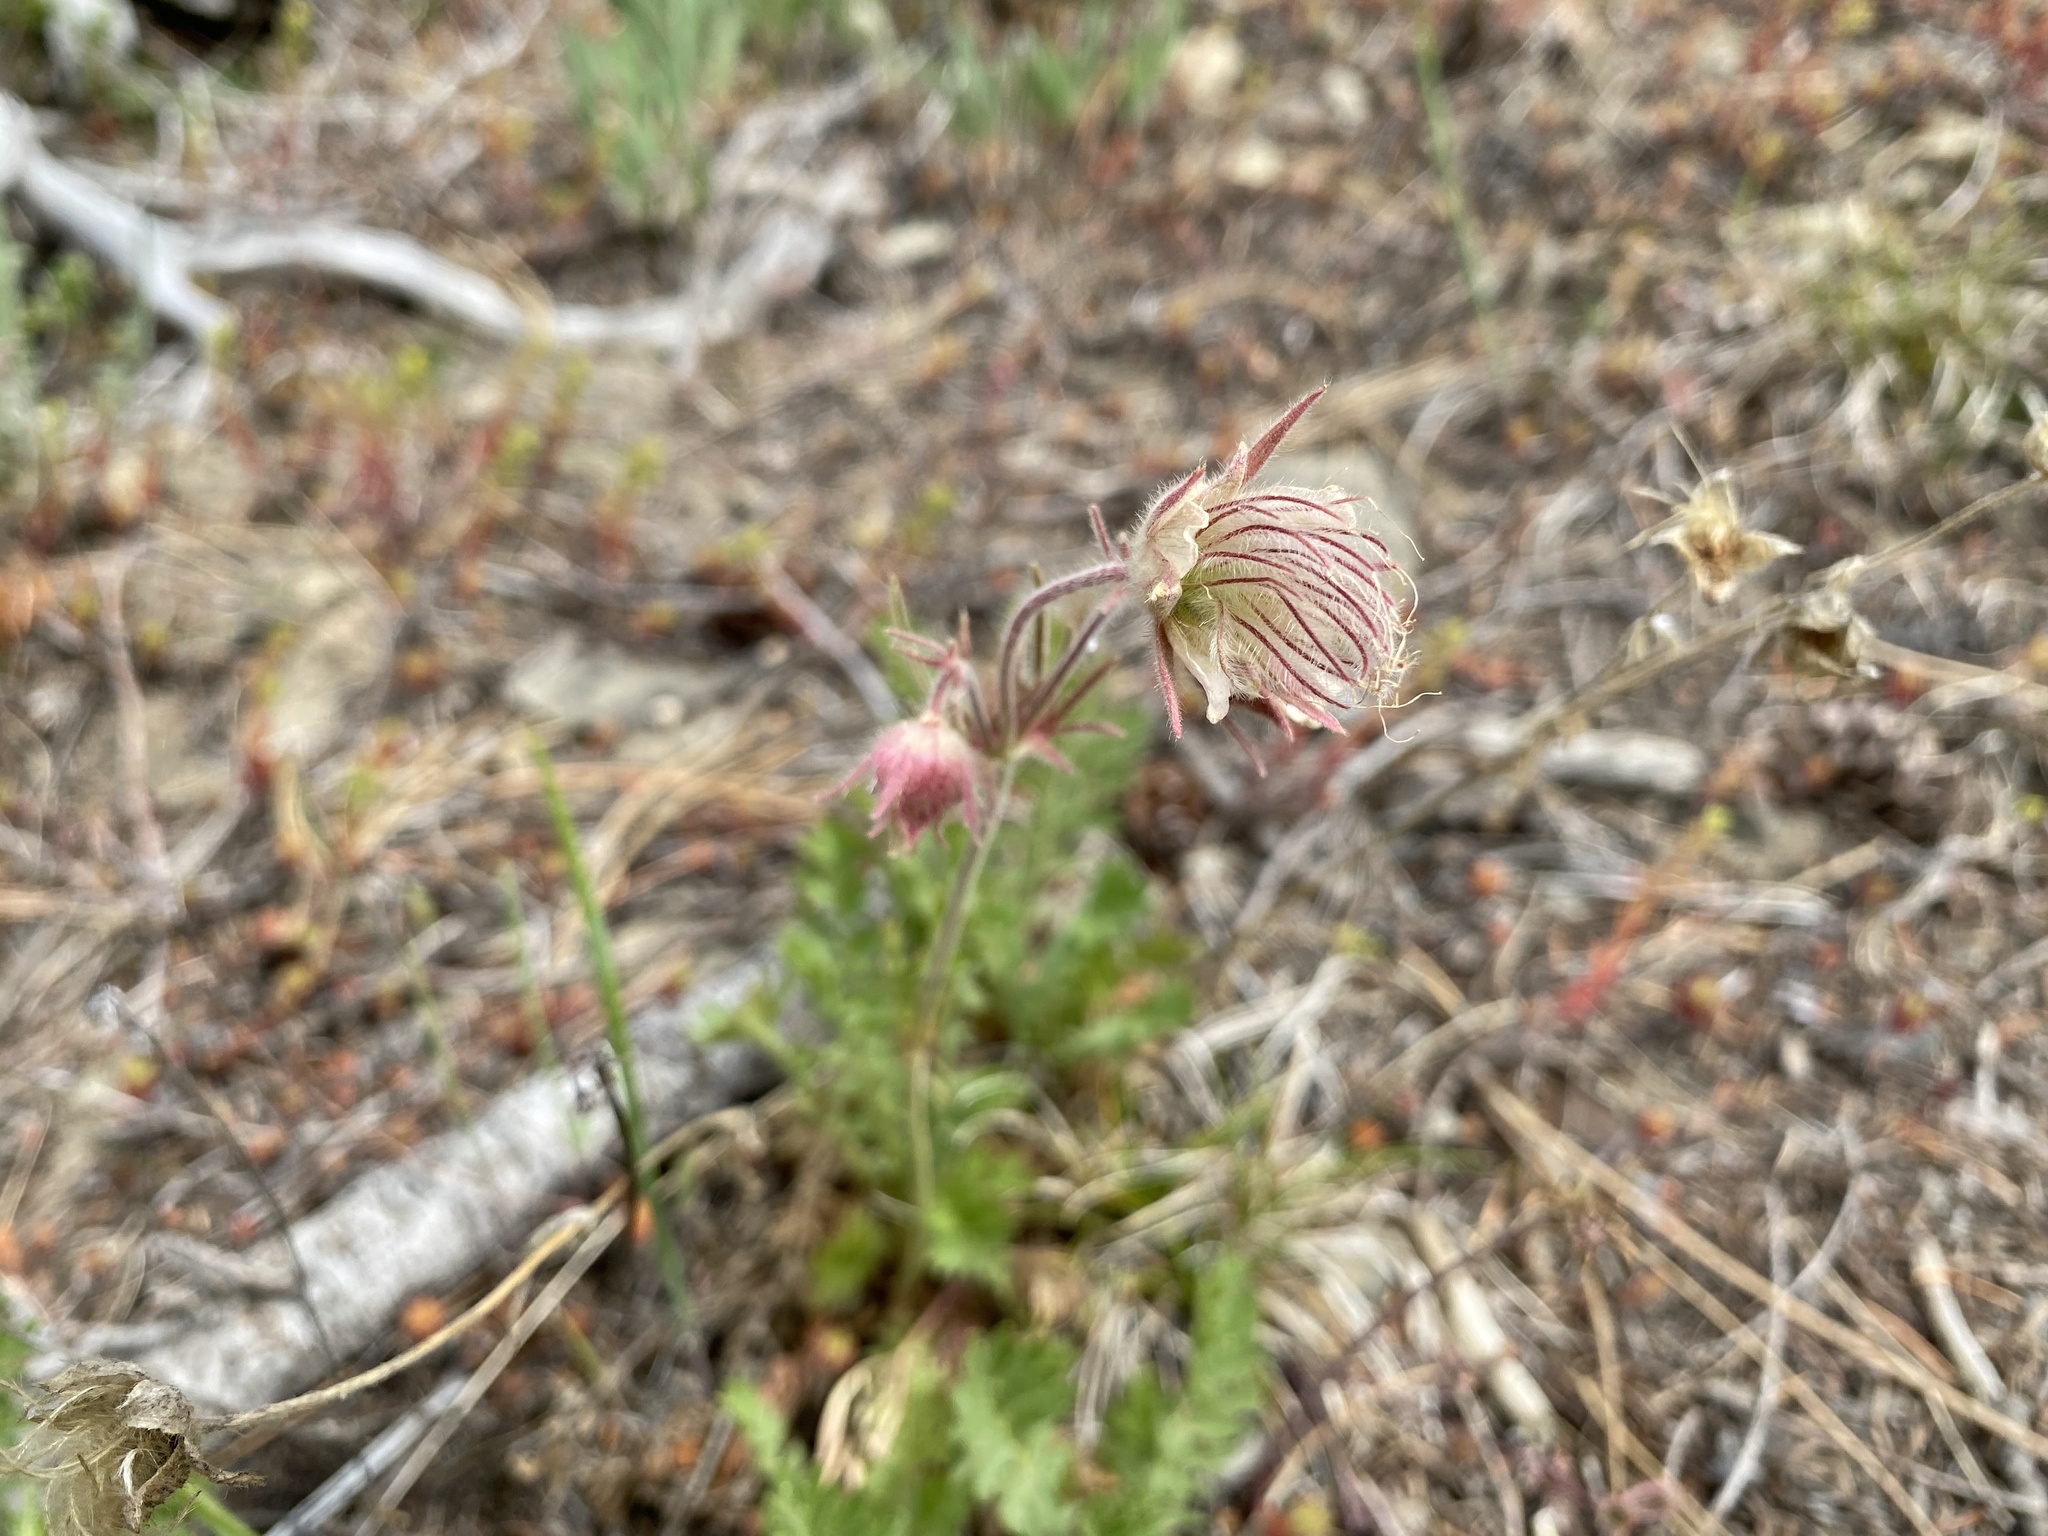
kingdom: Plantae
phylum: Tracheophyta
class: Magnoliopsida
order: Rosales
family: Rosaceae
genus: Geum
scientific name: Geum triflorum
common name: Old man's whiskers
